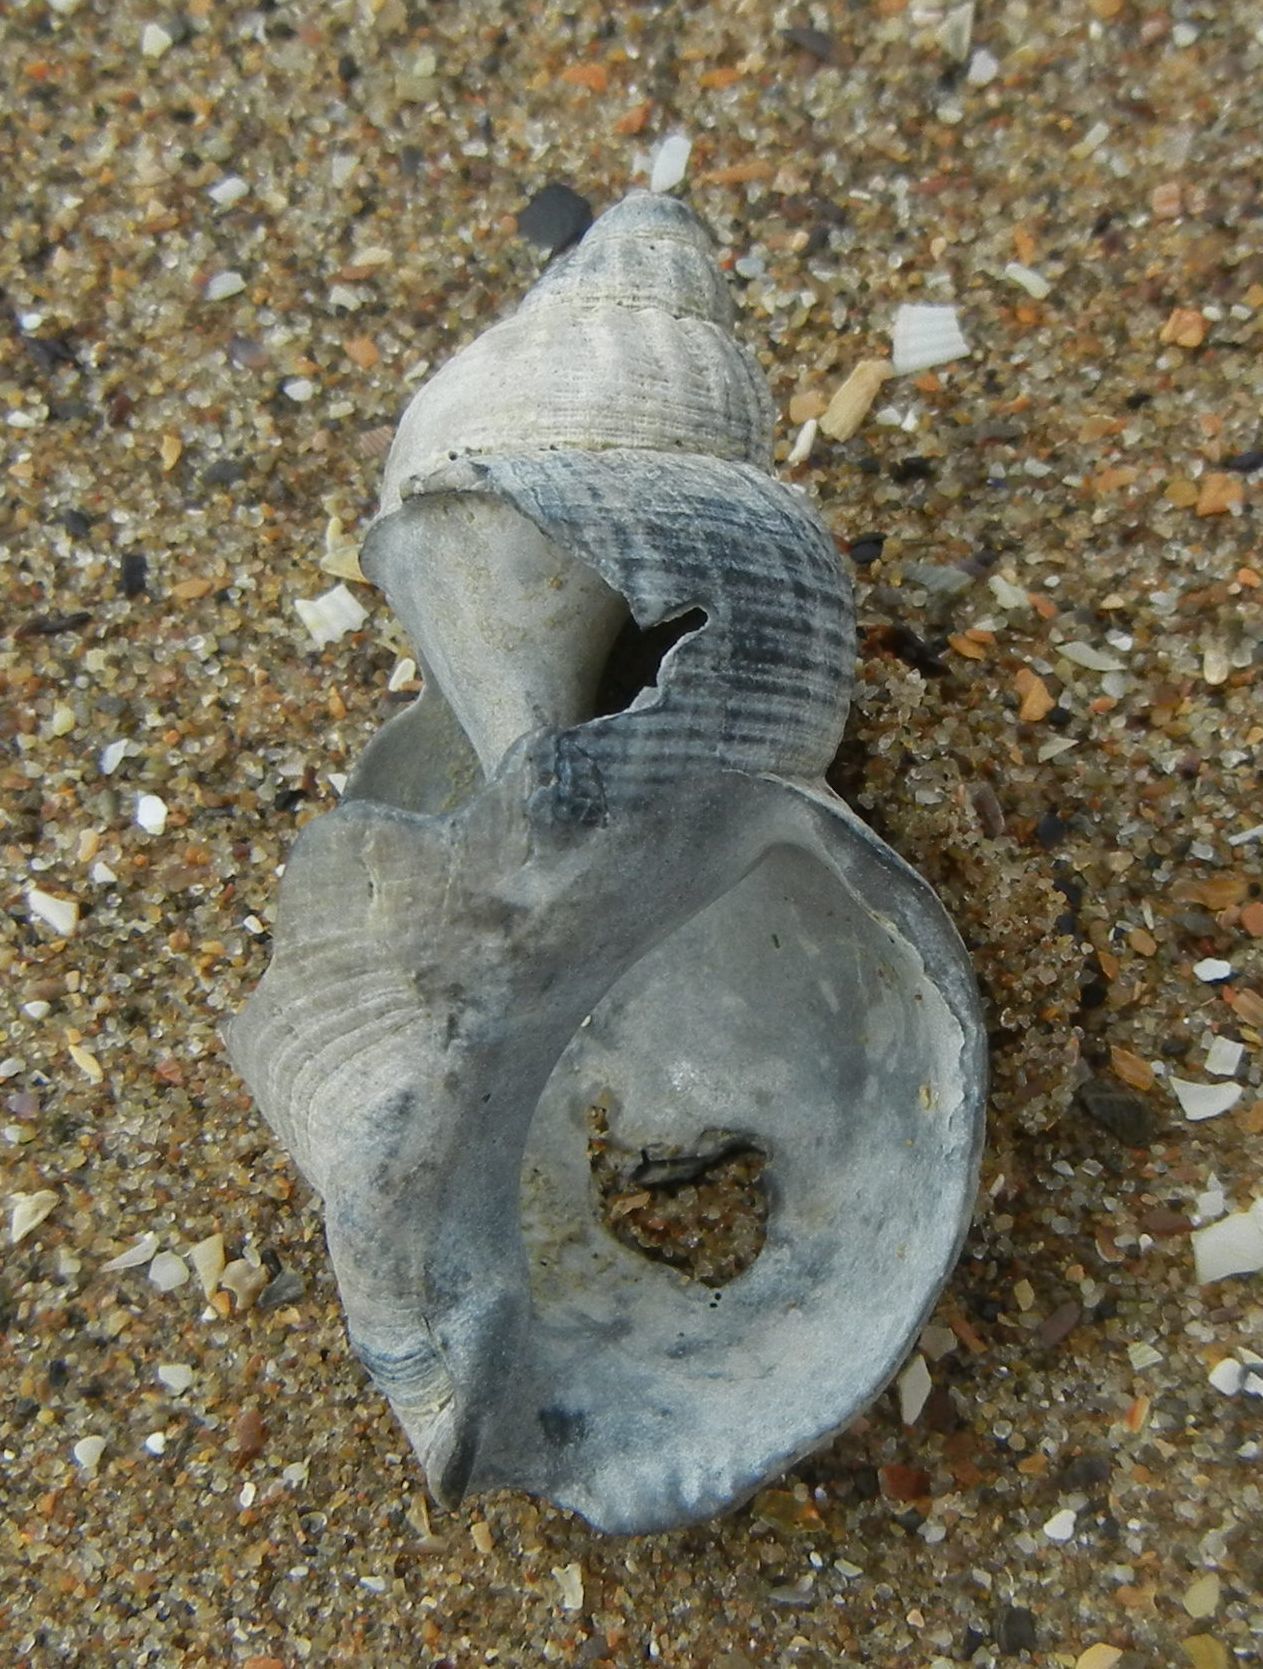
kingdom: Animalia
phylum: Mollusca
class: Gastropoda
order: Neogastropoda
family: Buccinidae
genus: Buccinum
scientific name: Buccinum undatum
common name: Common whelk
